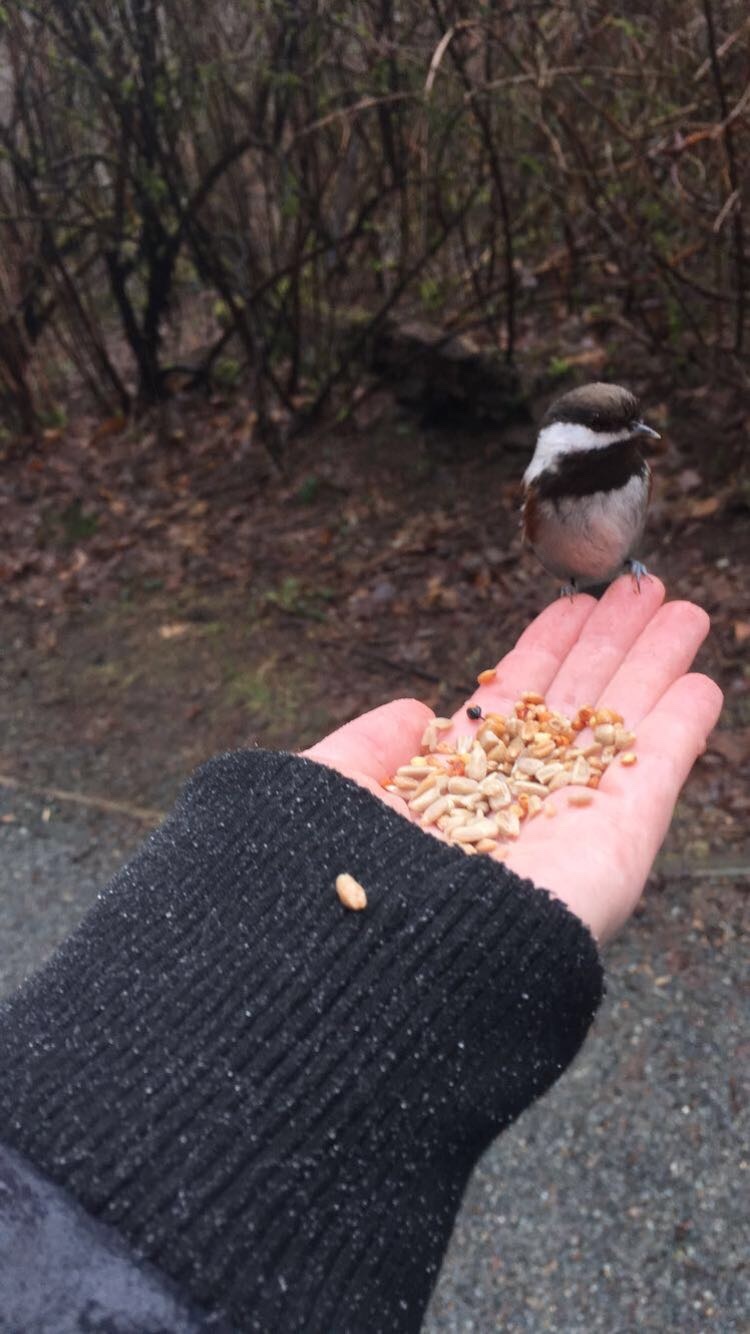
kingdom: Animalia
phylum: Chordata
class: Aves
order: Passeriformes
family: Paridae
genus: Poecile
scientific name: Poecile rufescens
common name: Chestnut-backed chickadee
